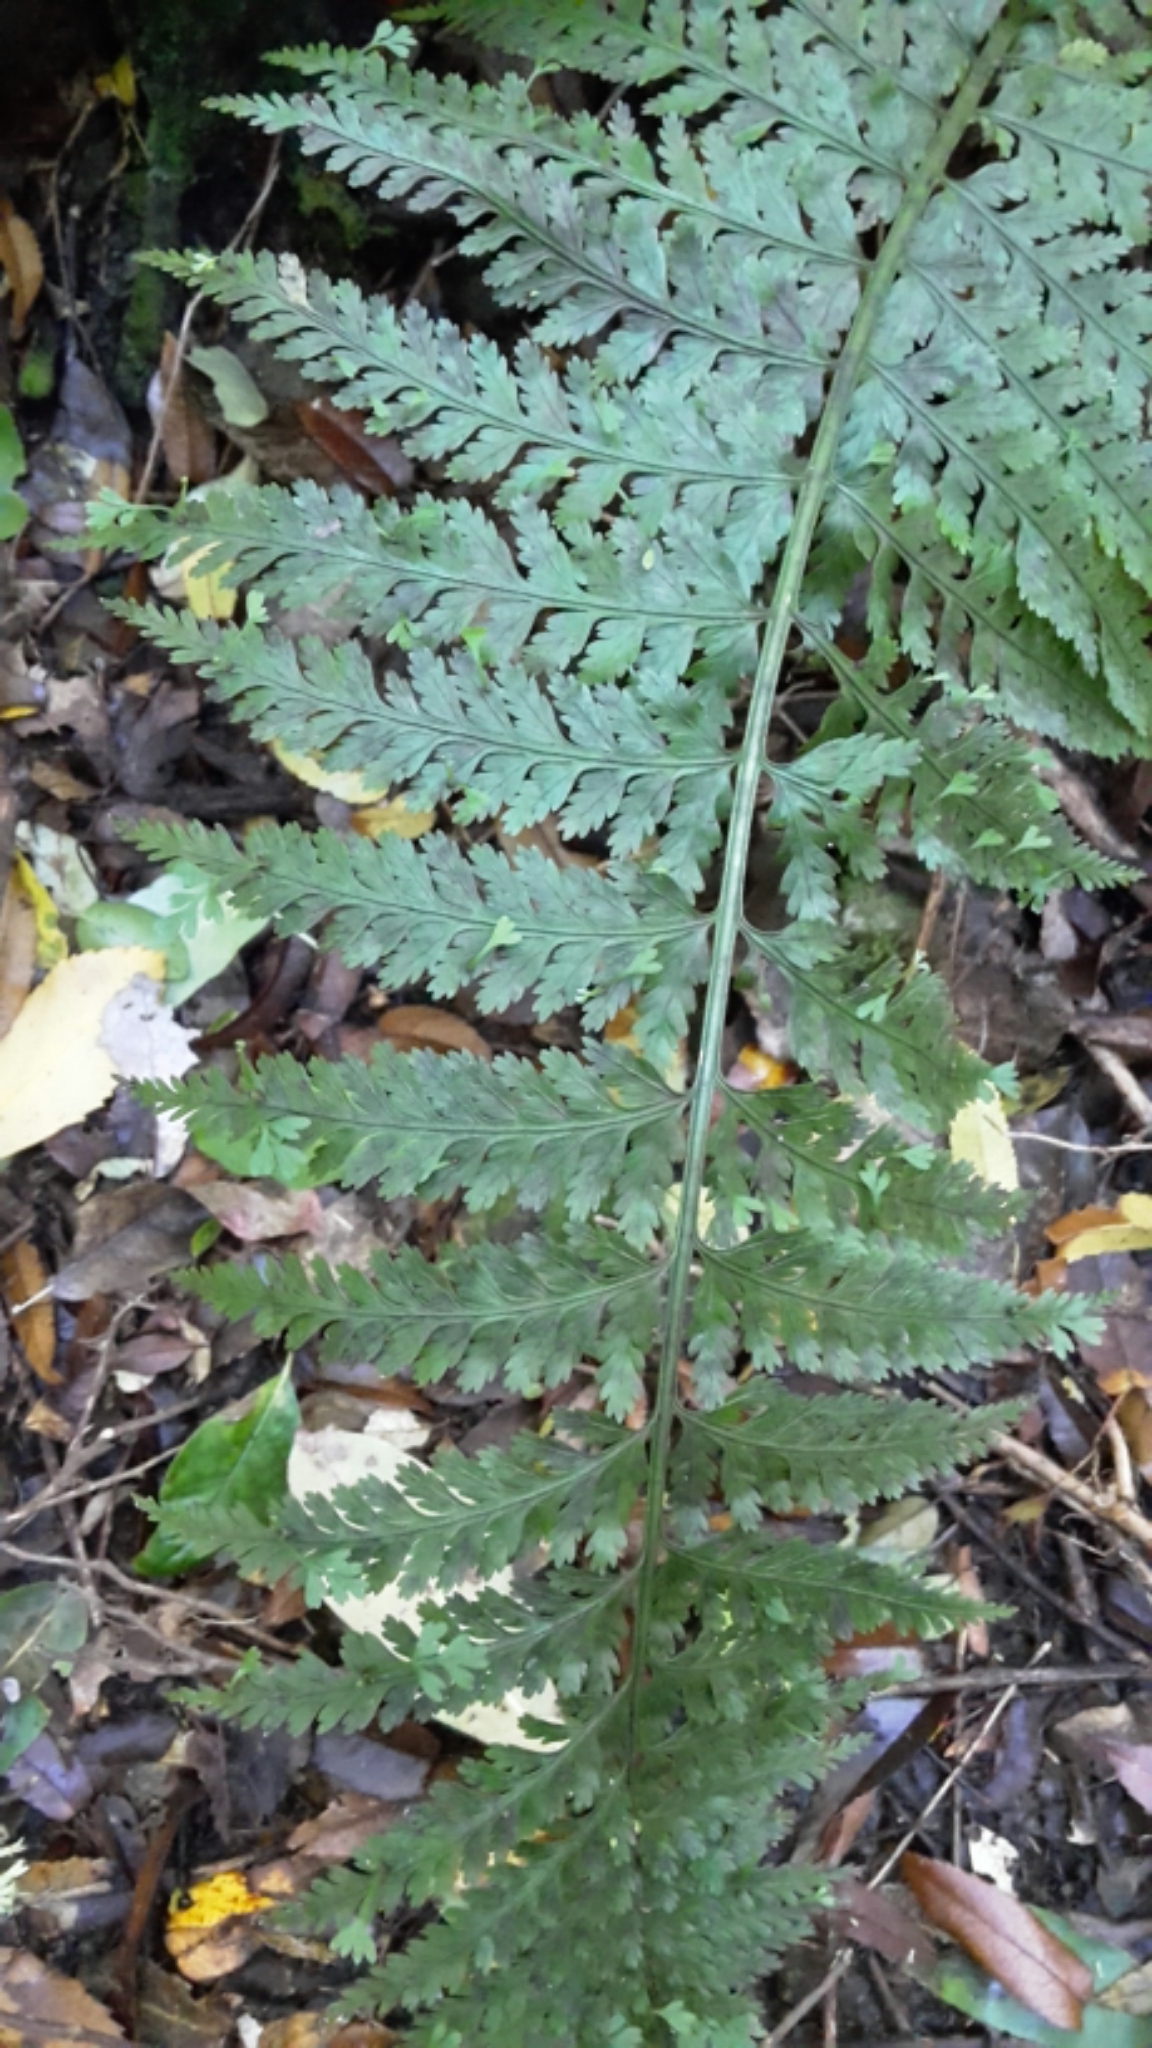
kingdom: Plantae
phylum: Tracheophyta
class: Polypodiopsida
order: Polypodiales
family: Aspleniaceae
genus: Asplenium
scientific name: Asplenium bulbiferum
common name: Mother fern
